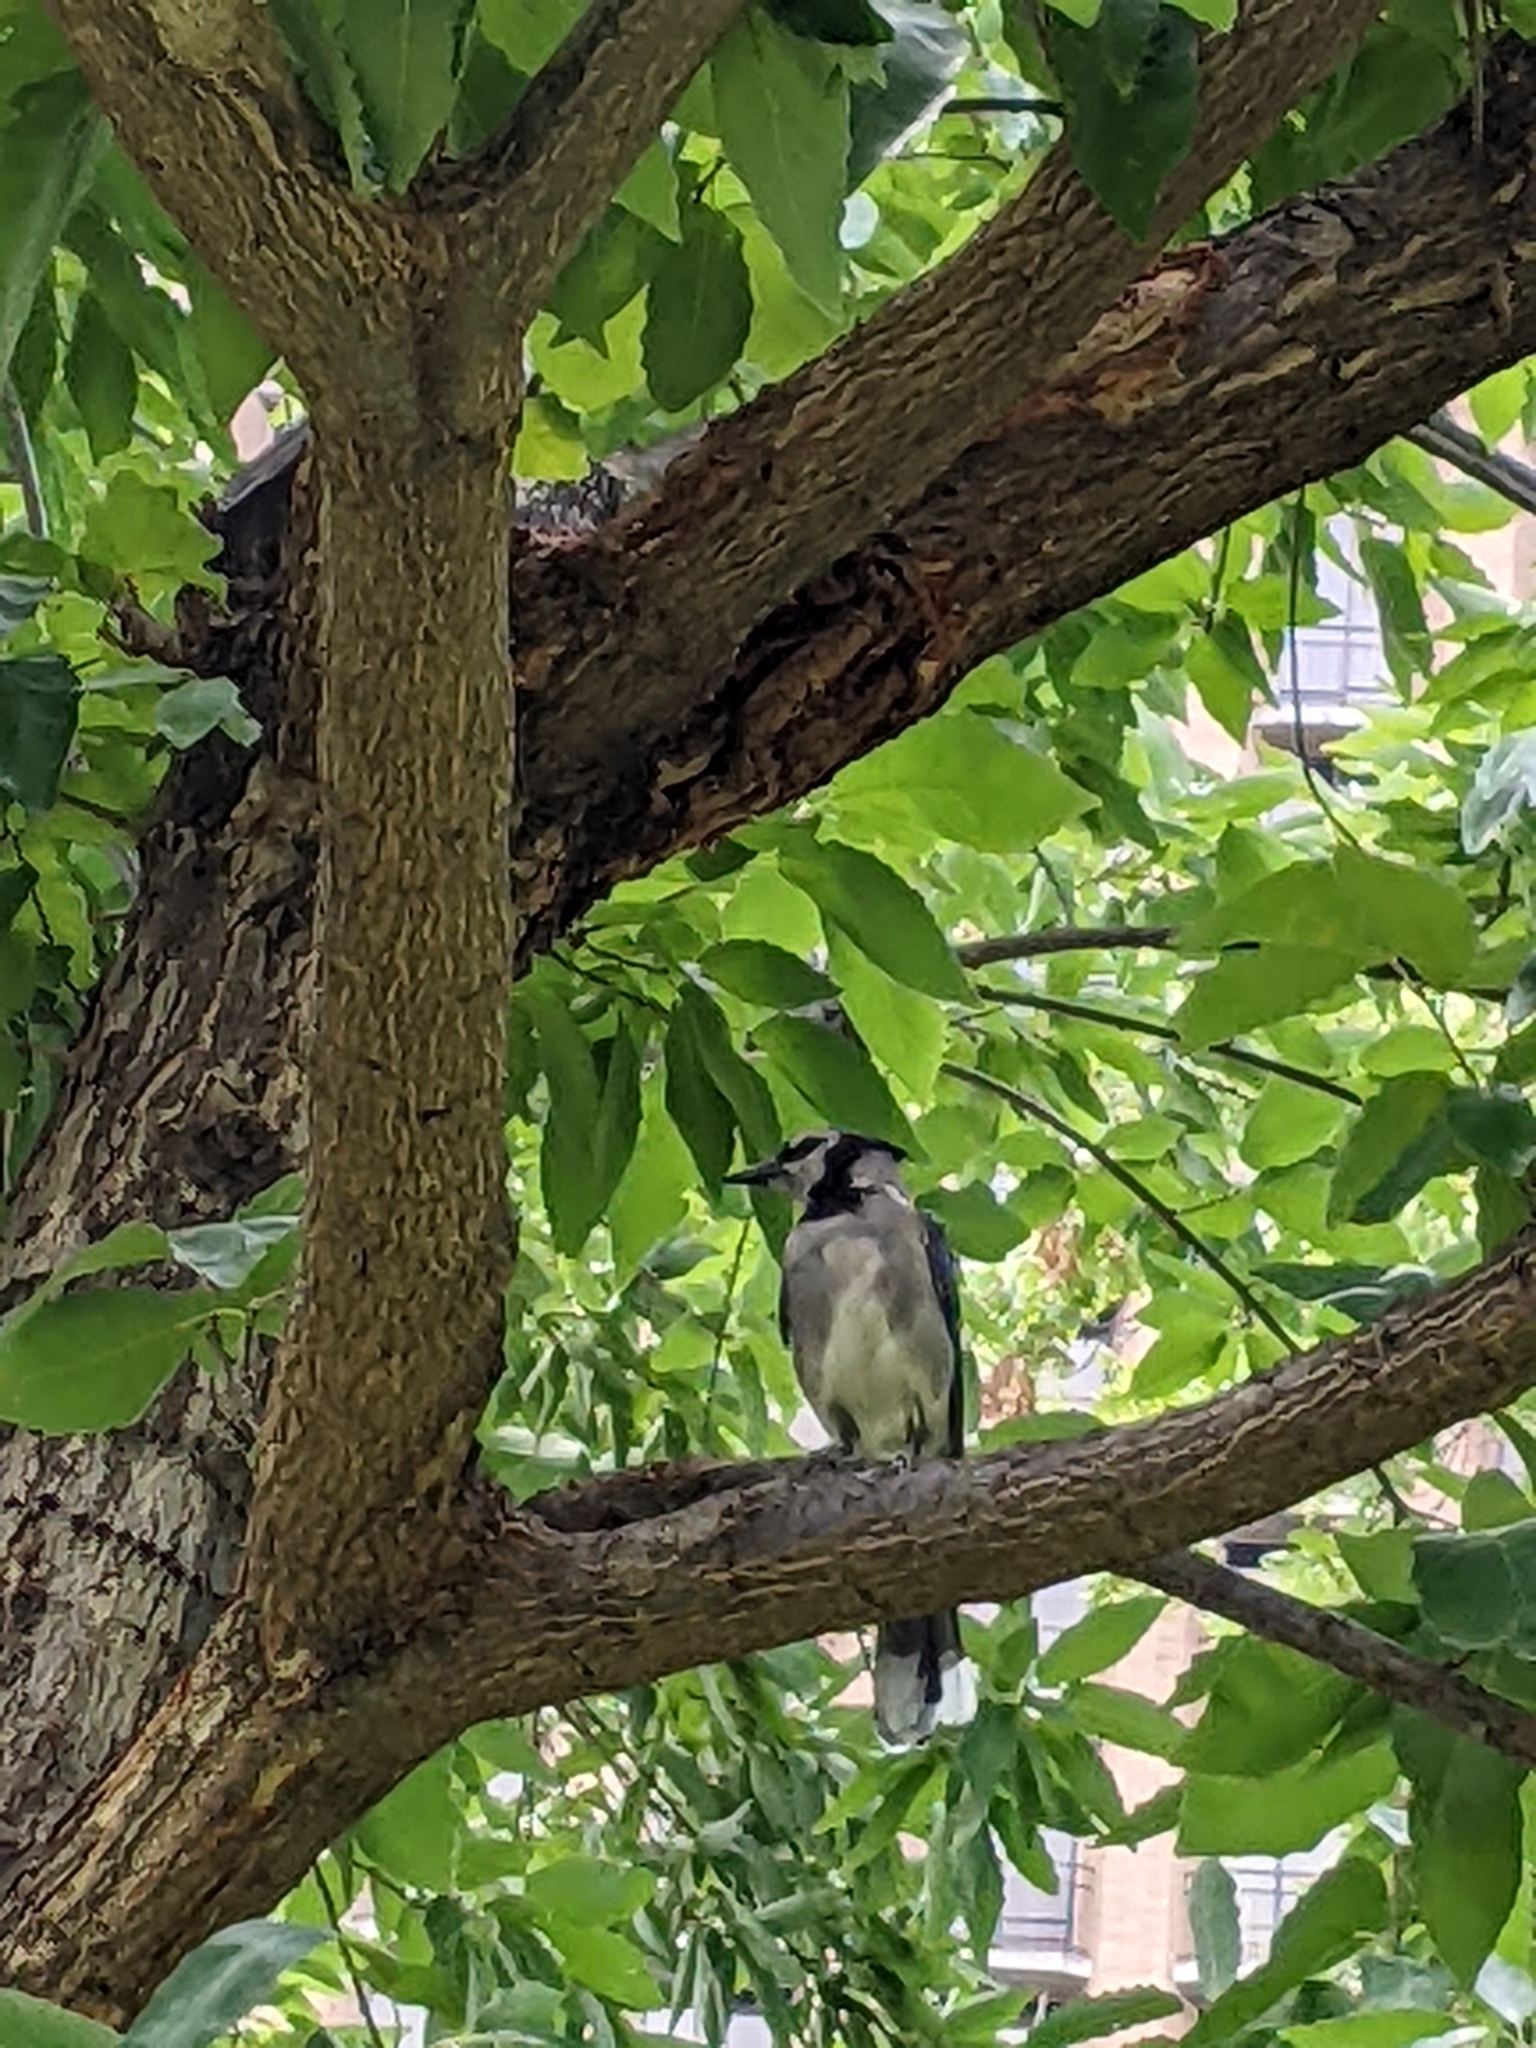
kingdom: Animalia
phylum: Chordata
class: Aves
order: Passeriformes
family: Corvidae
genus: Cyanocitta
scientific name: Cyanocitta cristata
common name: Blue jay
